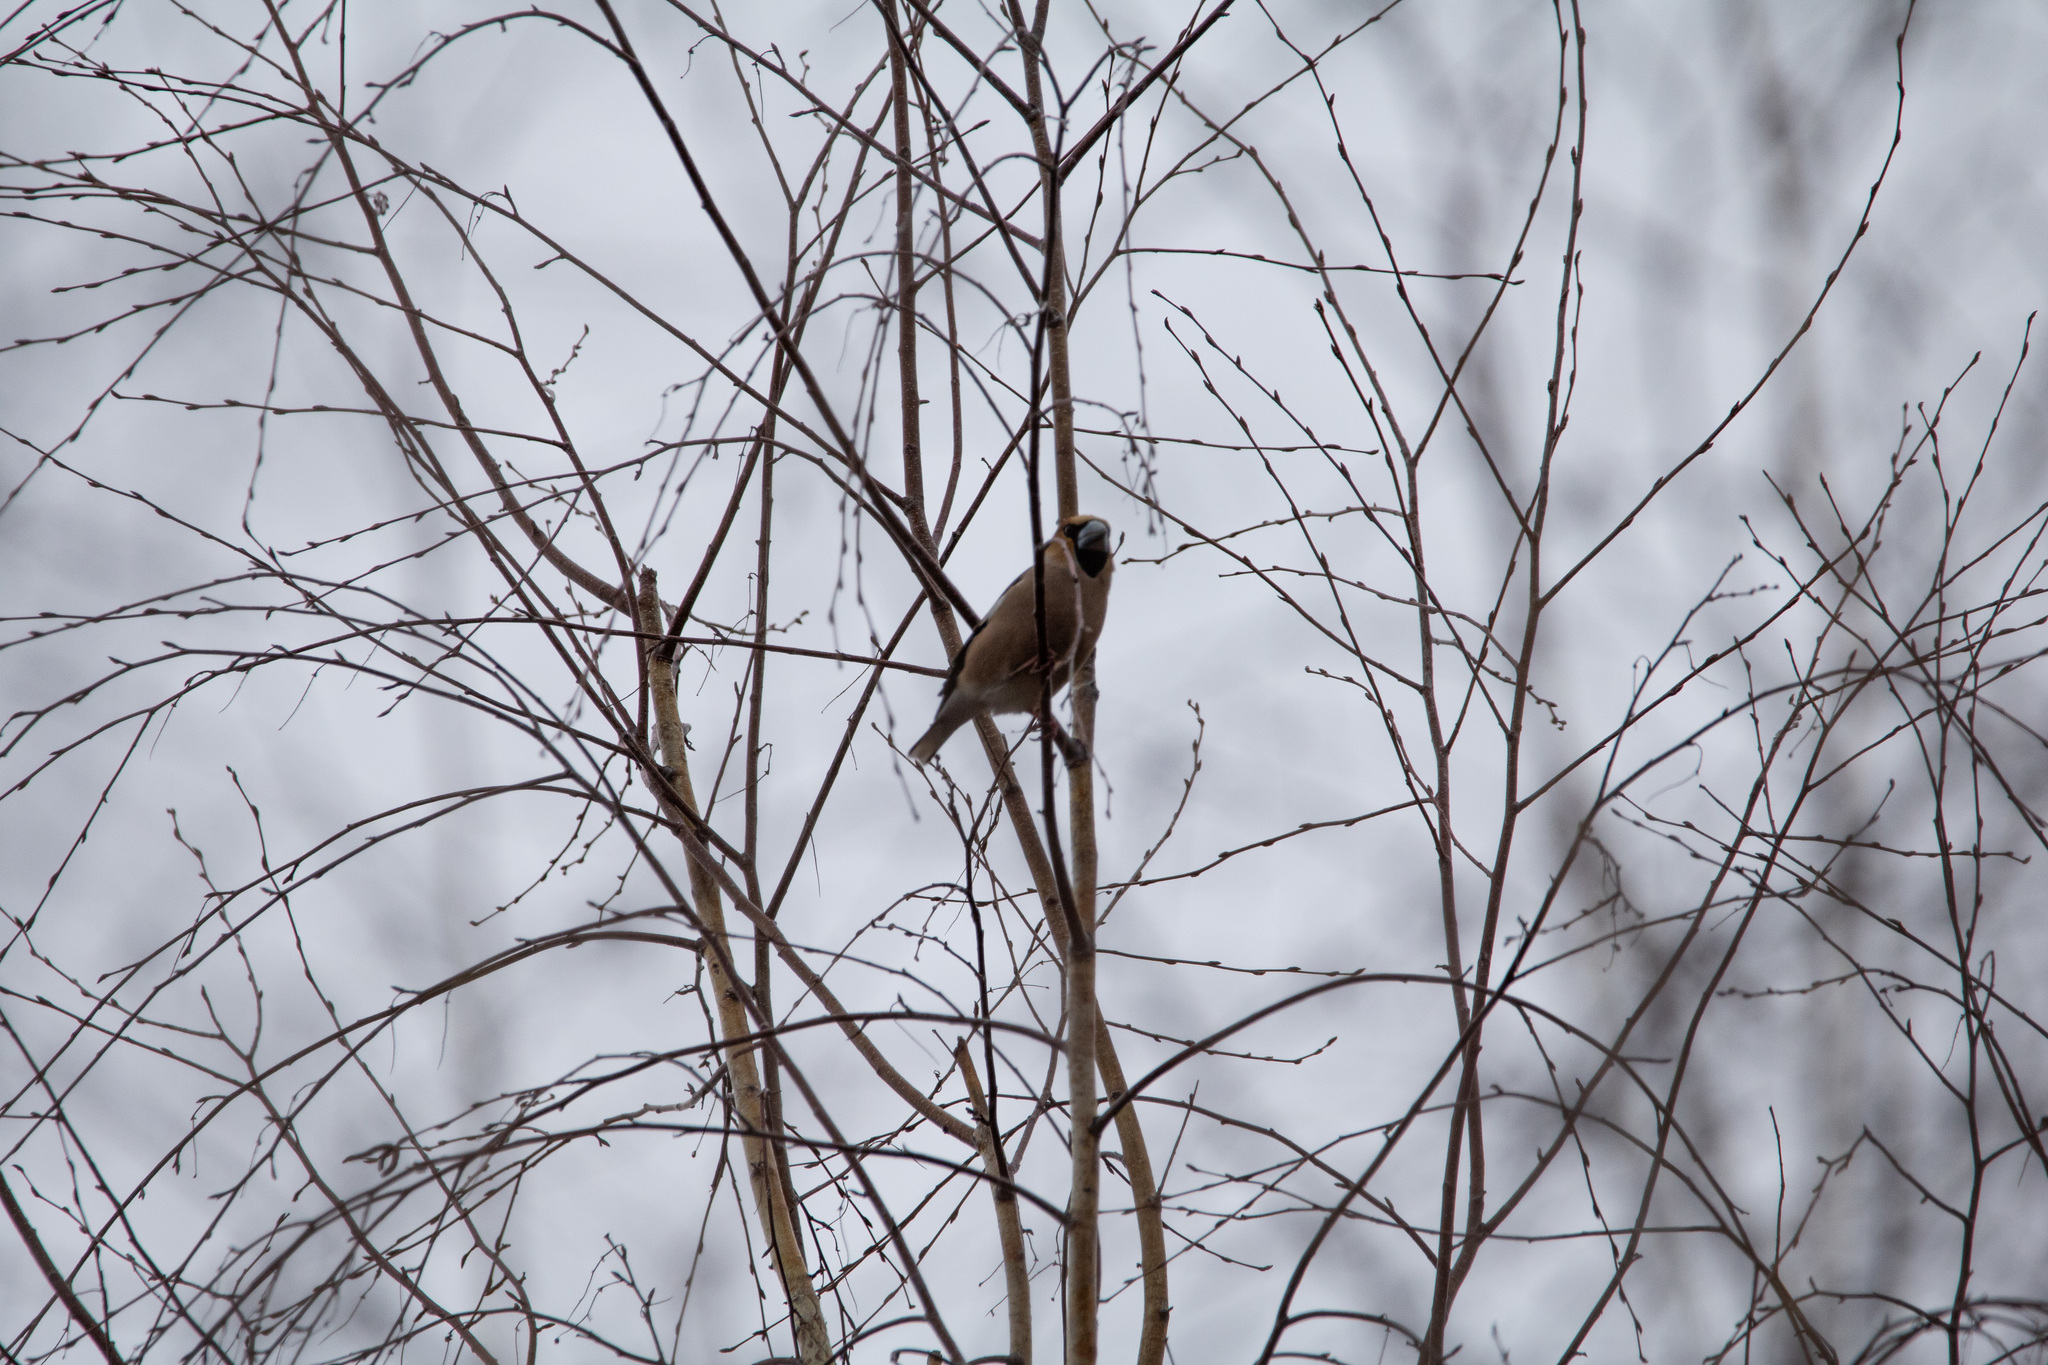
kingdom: Animalia
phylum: Chordata
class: Aves
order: Passeriformes
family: Fringillidae
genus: Coccothraustes
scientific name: Coccothraustes coccothraustes
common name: Hawfinch
